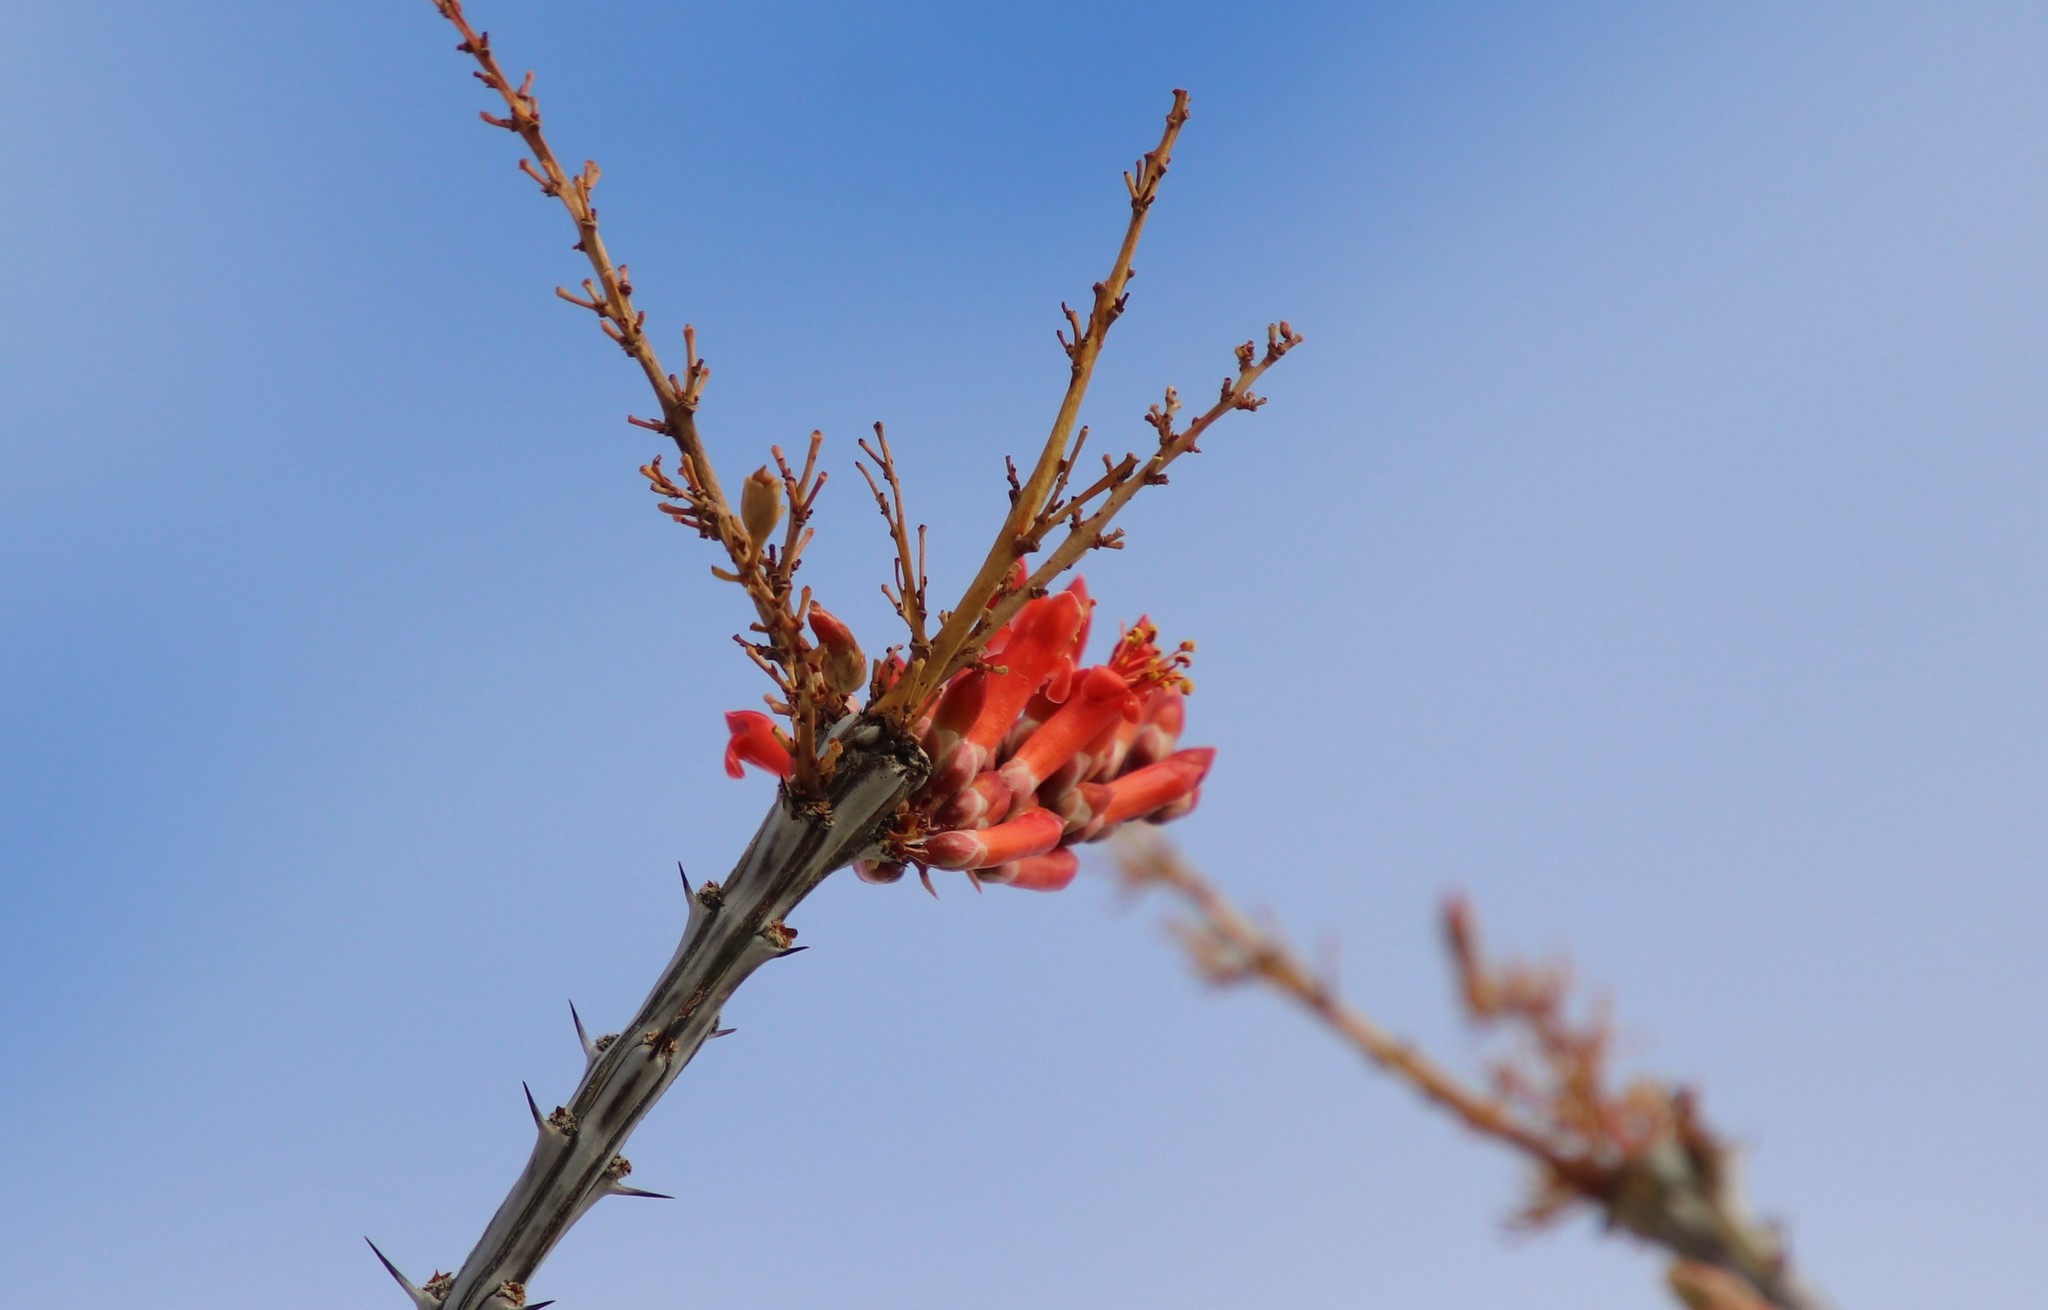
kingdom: Plantae
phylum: Tracheophyta
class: Magnoliopsida
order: Ericales
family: Fouquieriaceae
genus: Fouquieria
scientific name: Fouquieria splendens
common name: Vine-cactus
